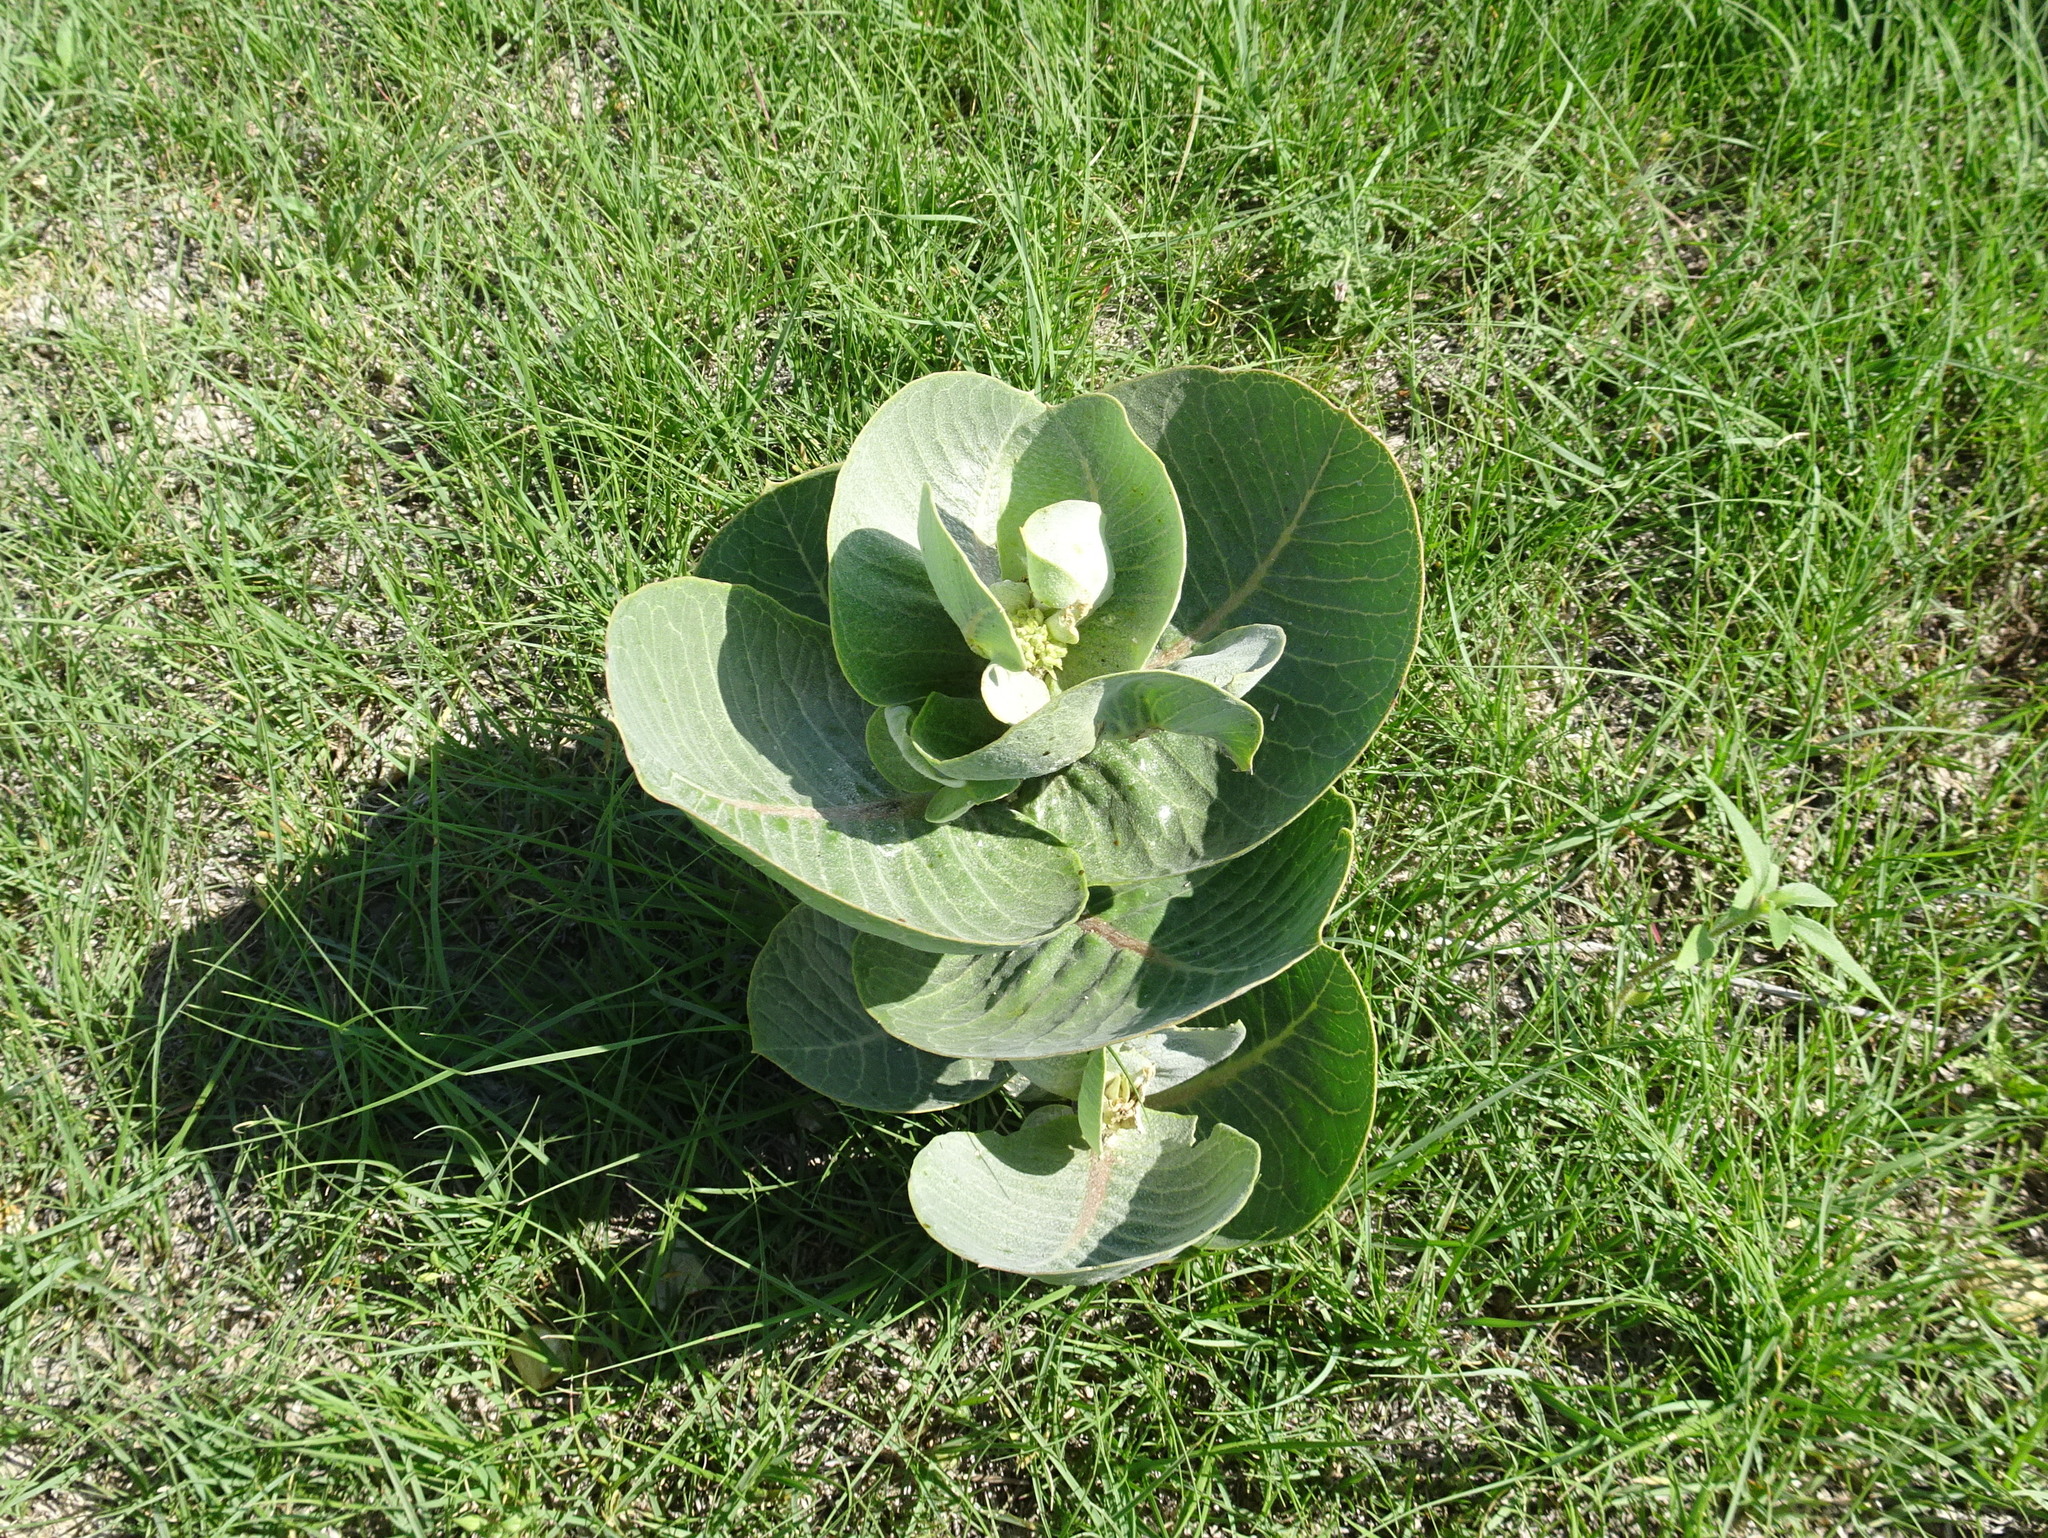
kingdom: Plantae
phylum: Tracheophyta
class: Magnoliopsida
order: Gentianales
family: Apocynaceae
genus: Asclepias
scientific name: Asclepias latifolia
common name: Broadleaf milkweed
